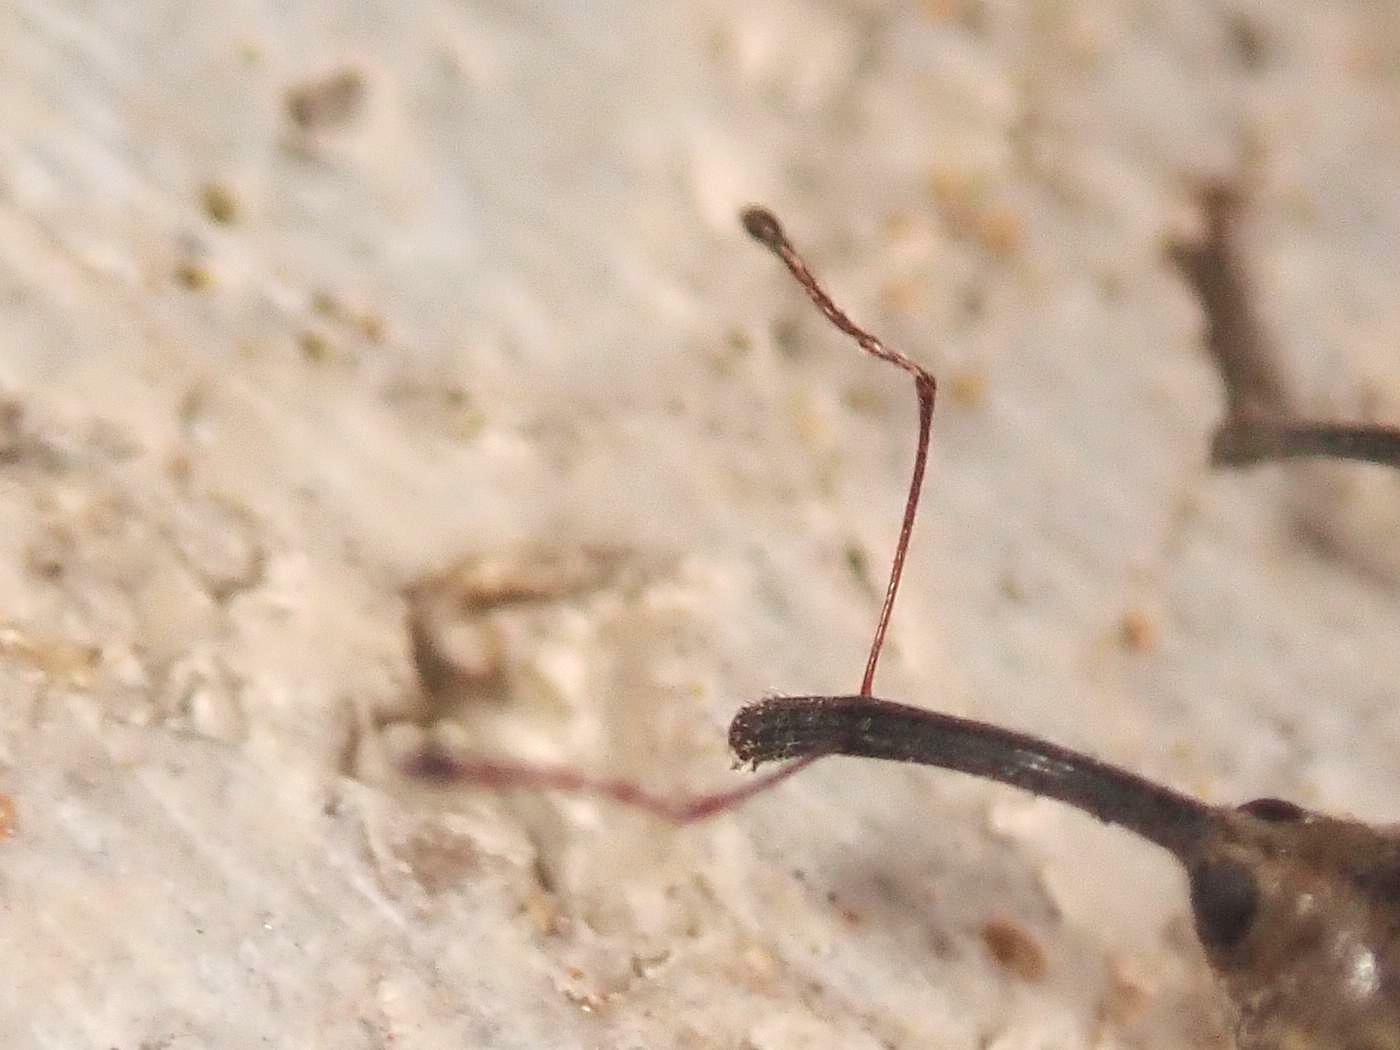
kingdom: Animalia
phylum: Arthropoda
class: Insecta
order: Coleoptera
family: Curculionidae
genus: Dorytomus
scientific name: Dorytomus longimanus
